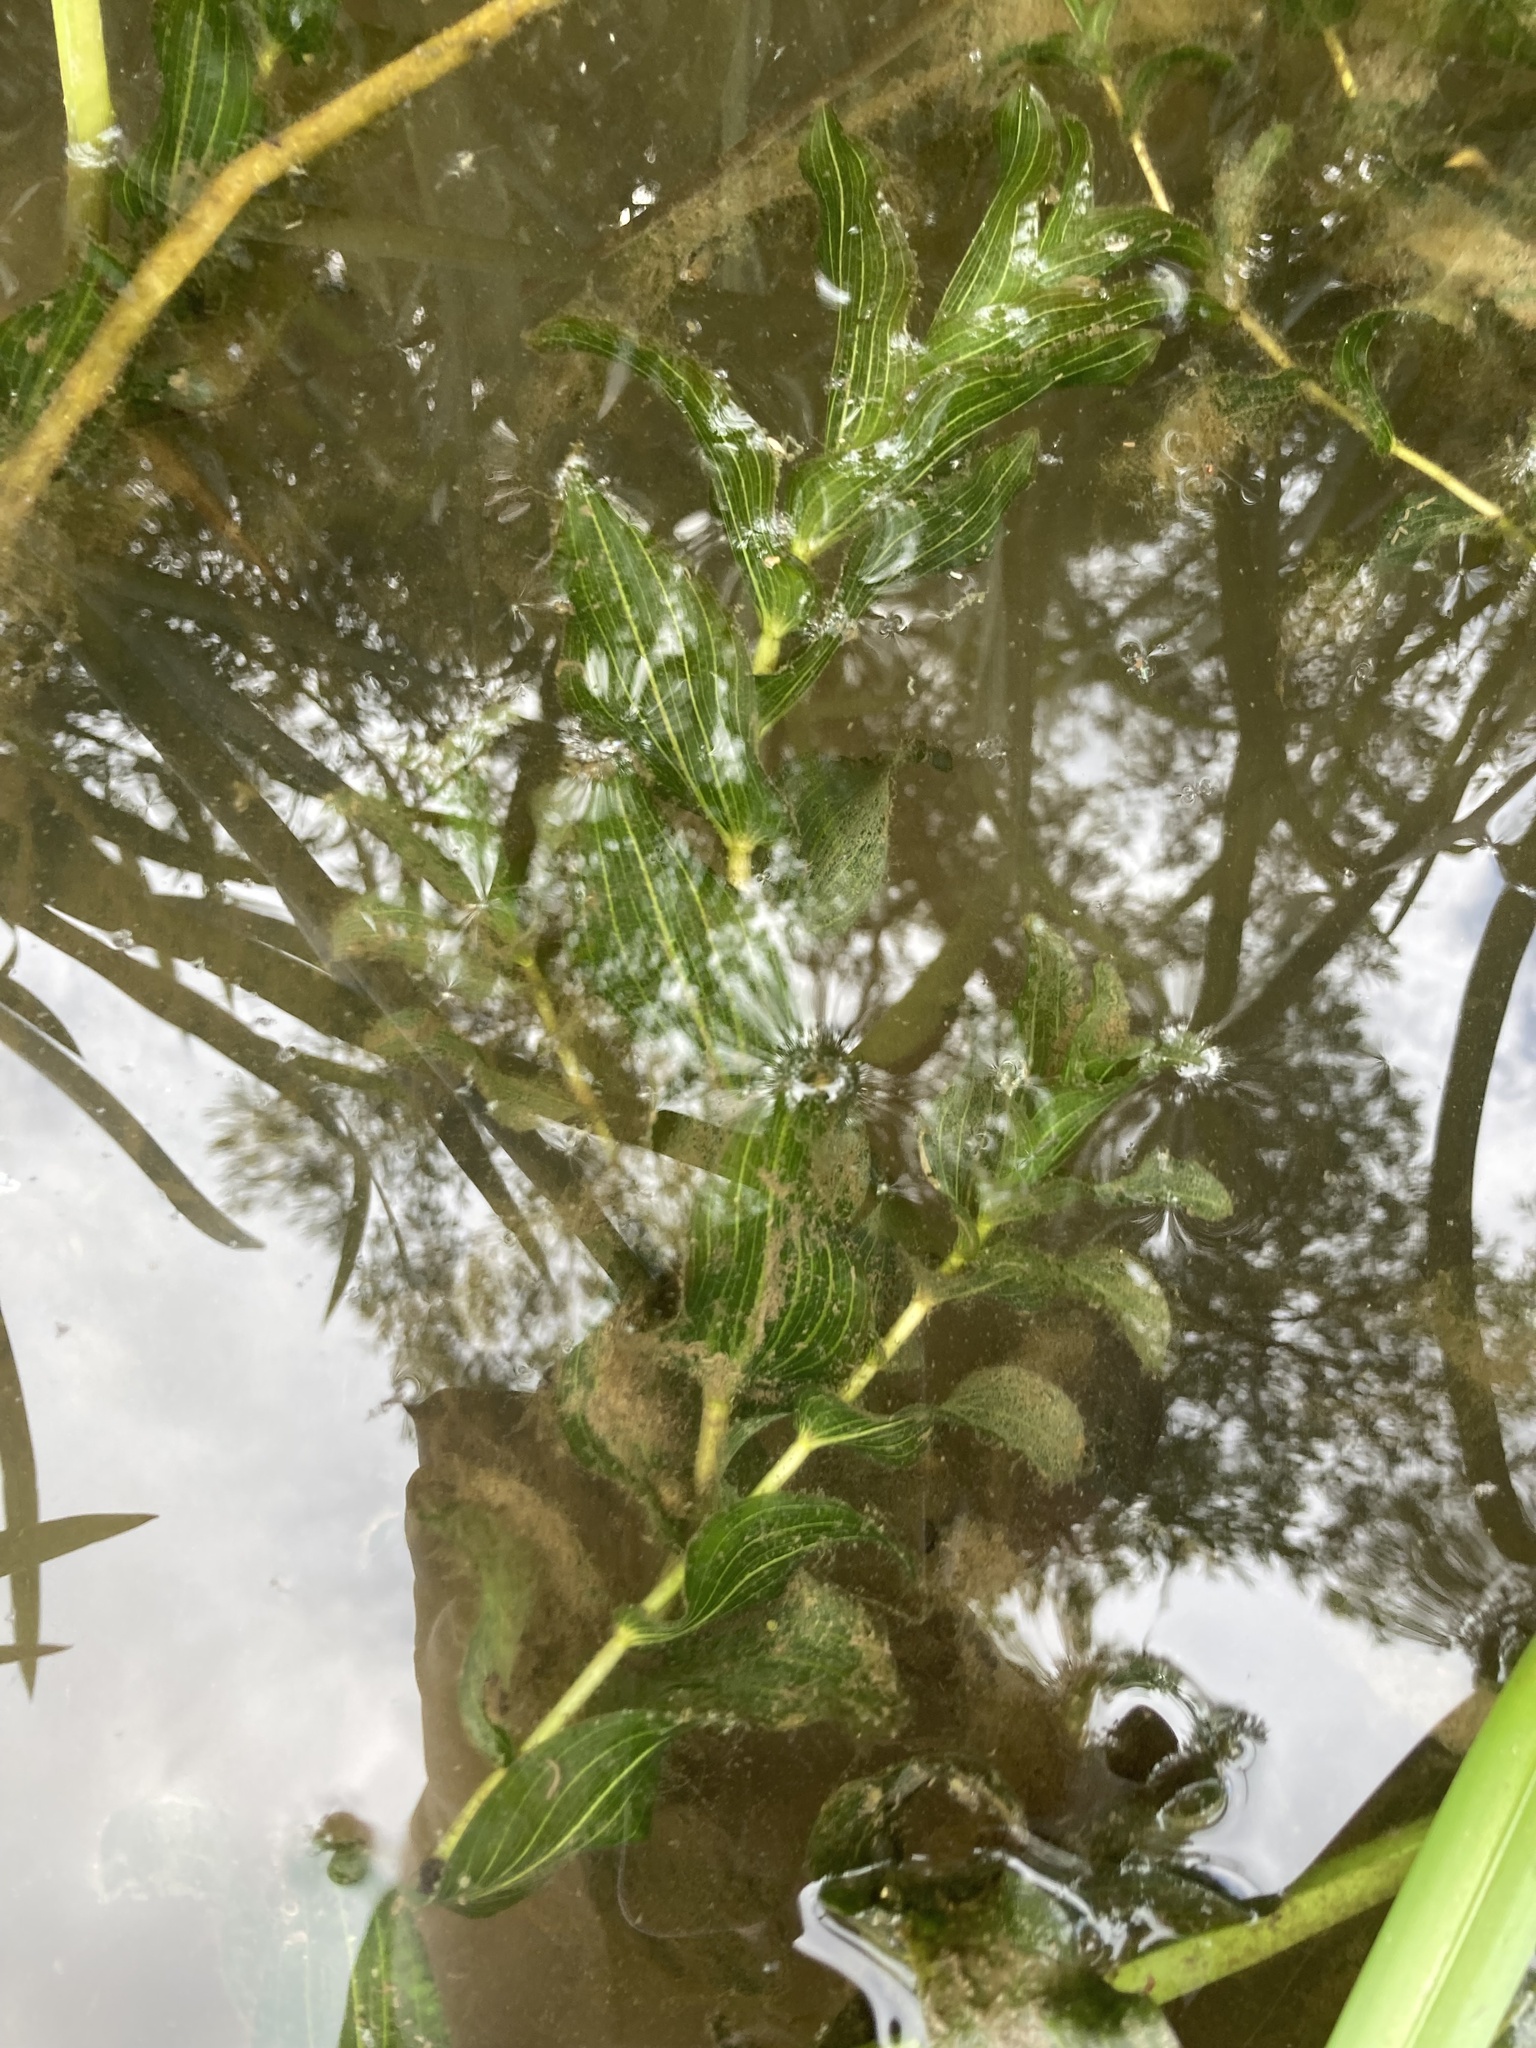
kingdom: Plantae
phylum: Tracheophyta
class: Liliopsida
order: Alismatales
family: Potamogetonaceae
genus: Potamogeton
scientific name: Potamogeton perfoliatus
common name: Perfoliate pondweed
